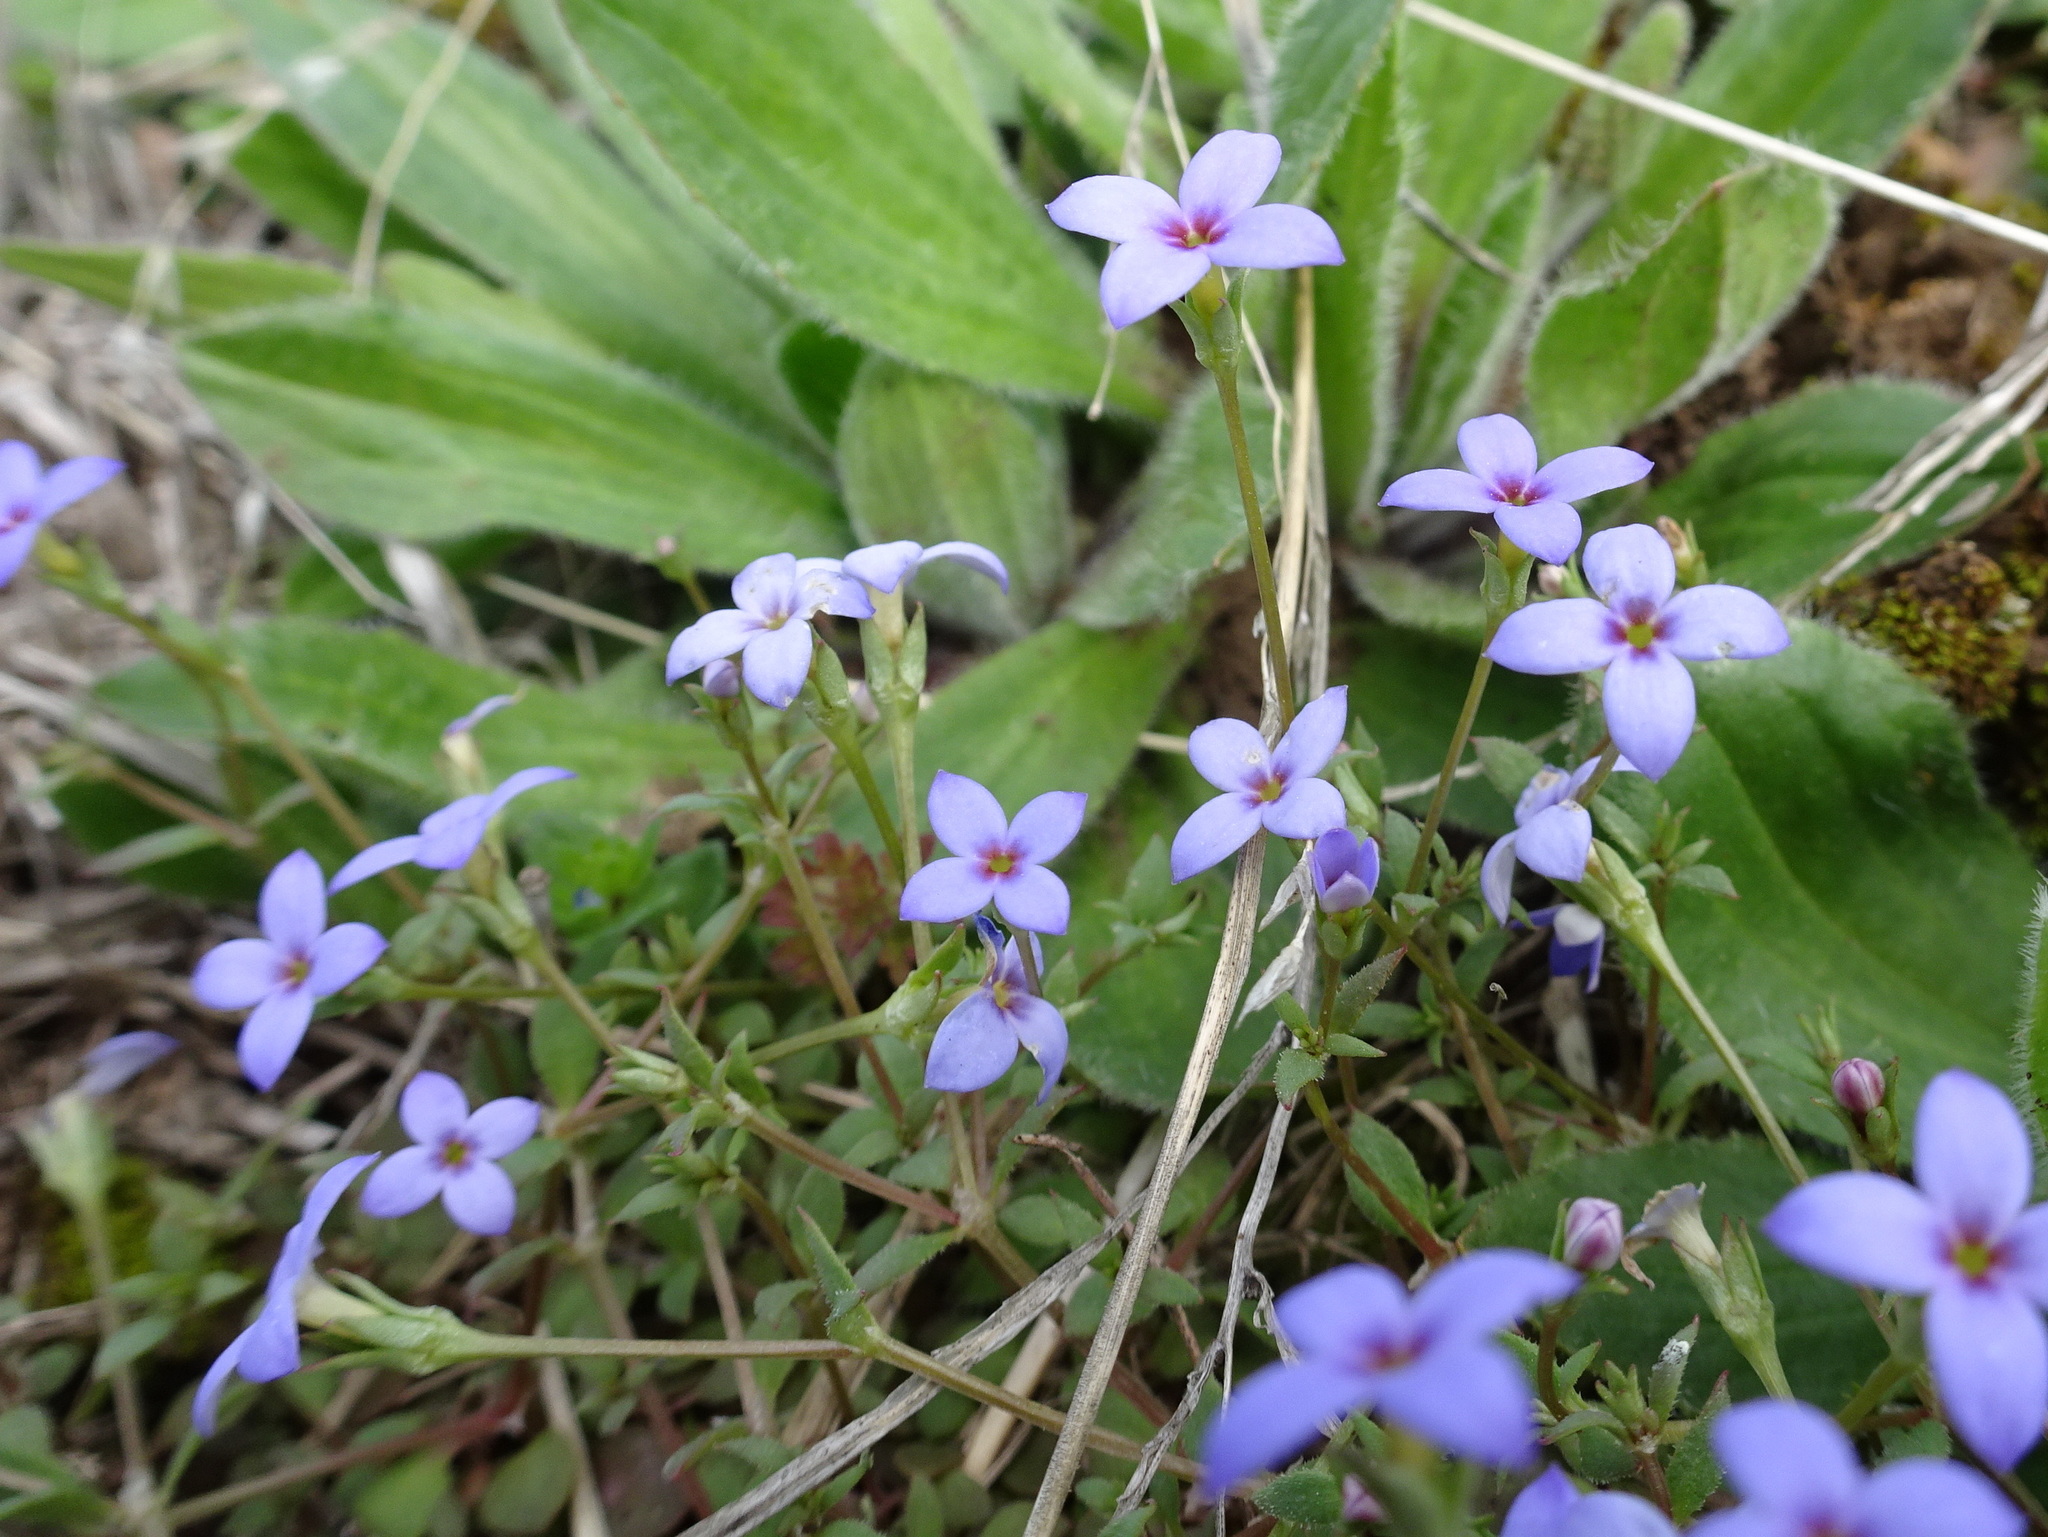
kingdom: Plantae
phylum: Tracheophyta
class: Magnoliopsida
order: Gentianales
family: Rubiaceae
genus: Houstonia
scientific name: Houstonia pusilla
